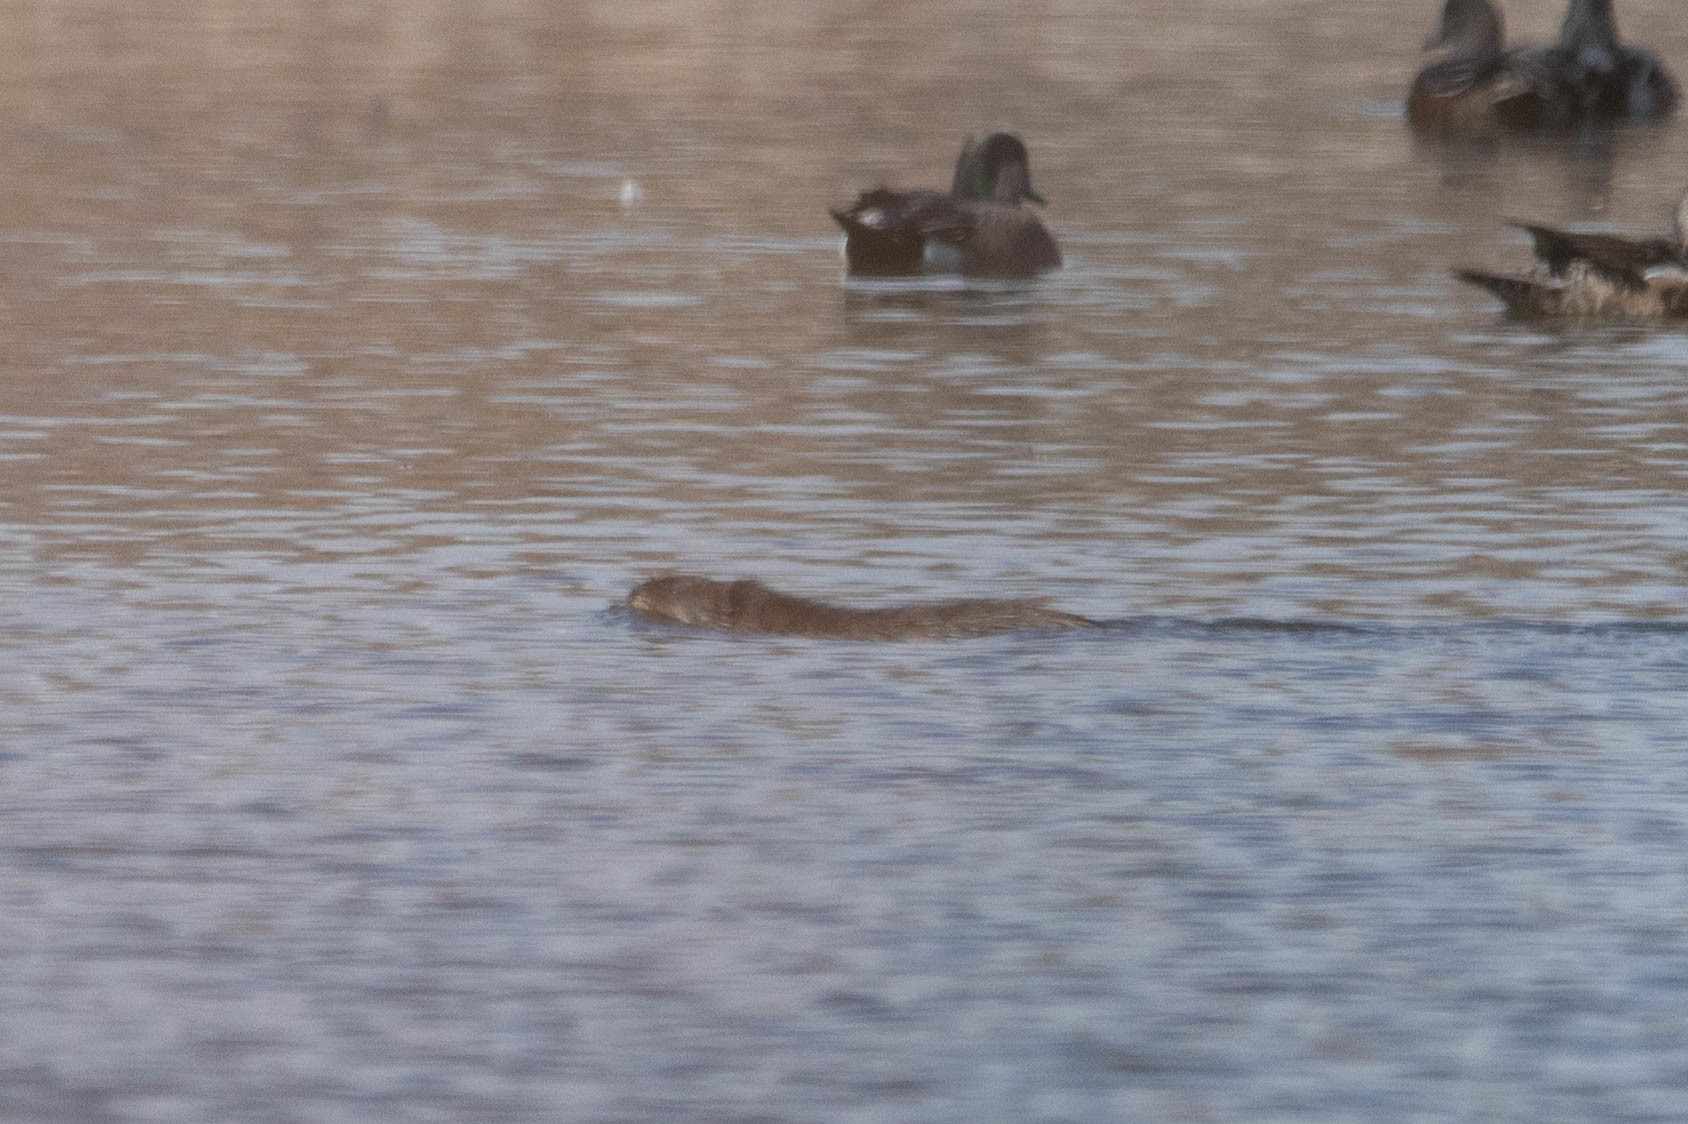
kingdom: Animalia
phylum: Chordata
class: Mammalia
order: Rodentia
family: Cricetidae
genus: Ondatra
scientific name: Ondatra zibethicus
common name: Muskrat
